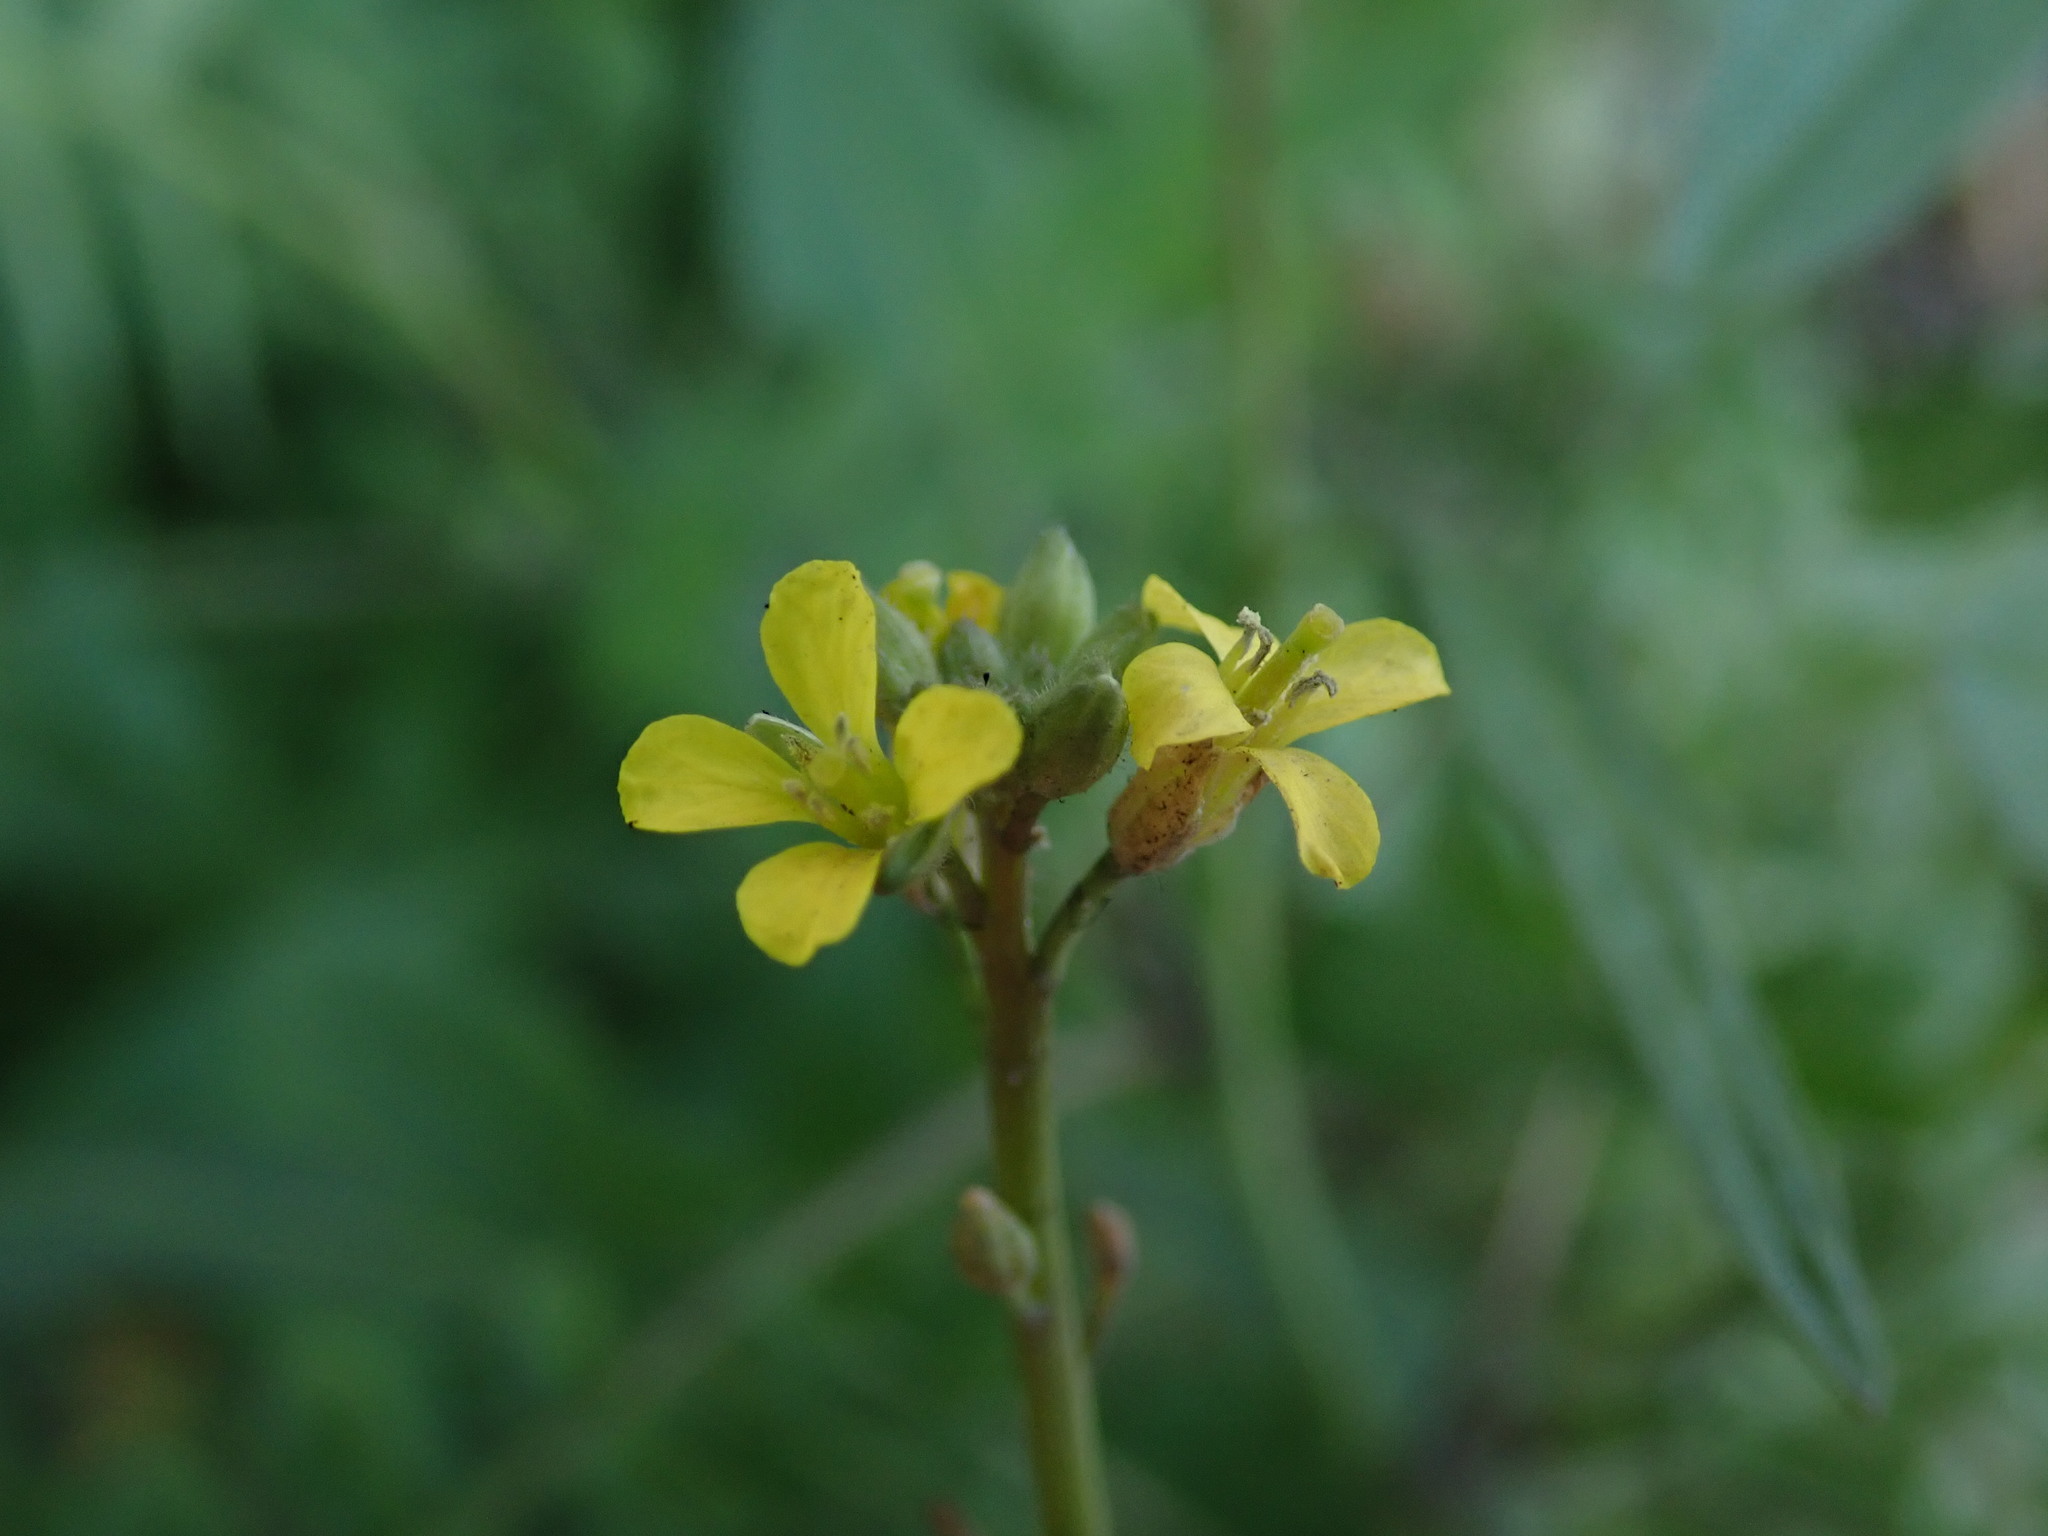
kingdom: Plantae
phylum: Tracheophyta
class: Magnoliopsida
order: Brassicales
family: Brassicaceae
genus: Sisymbrium
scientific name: Sisymbrium orientale
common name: Eastern rocket
